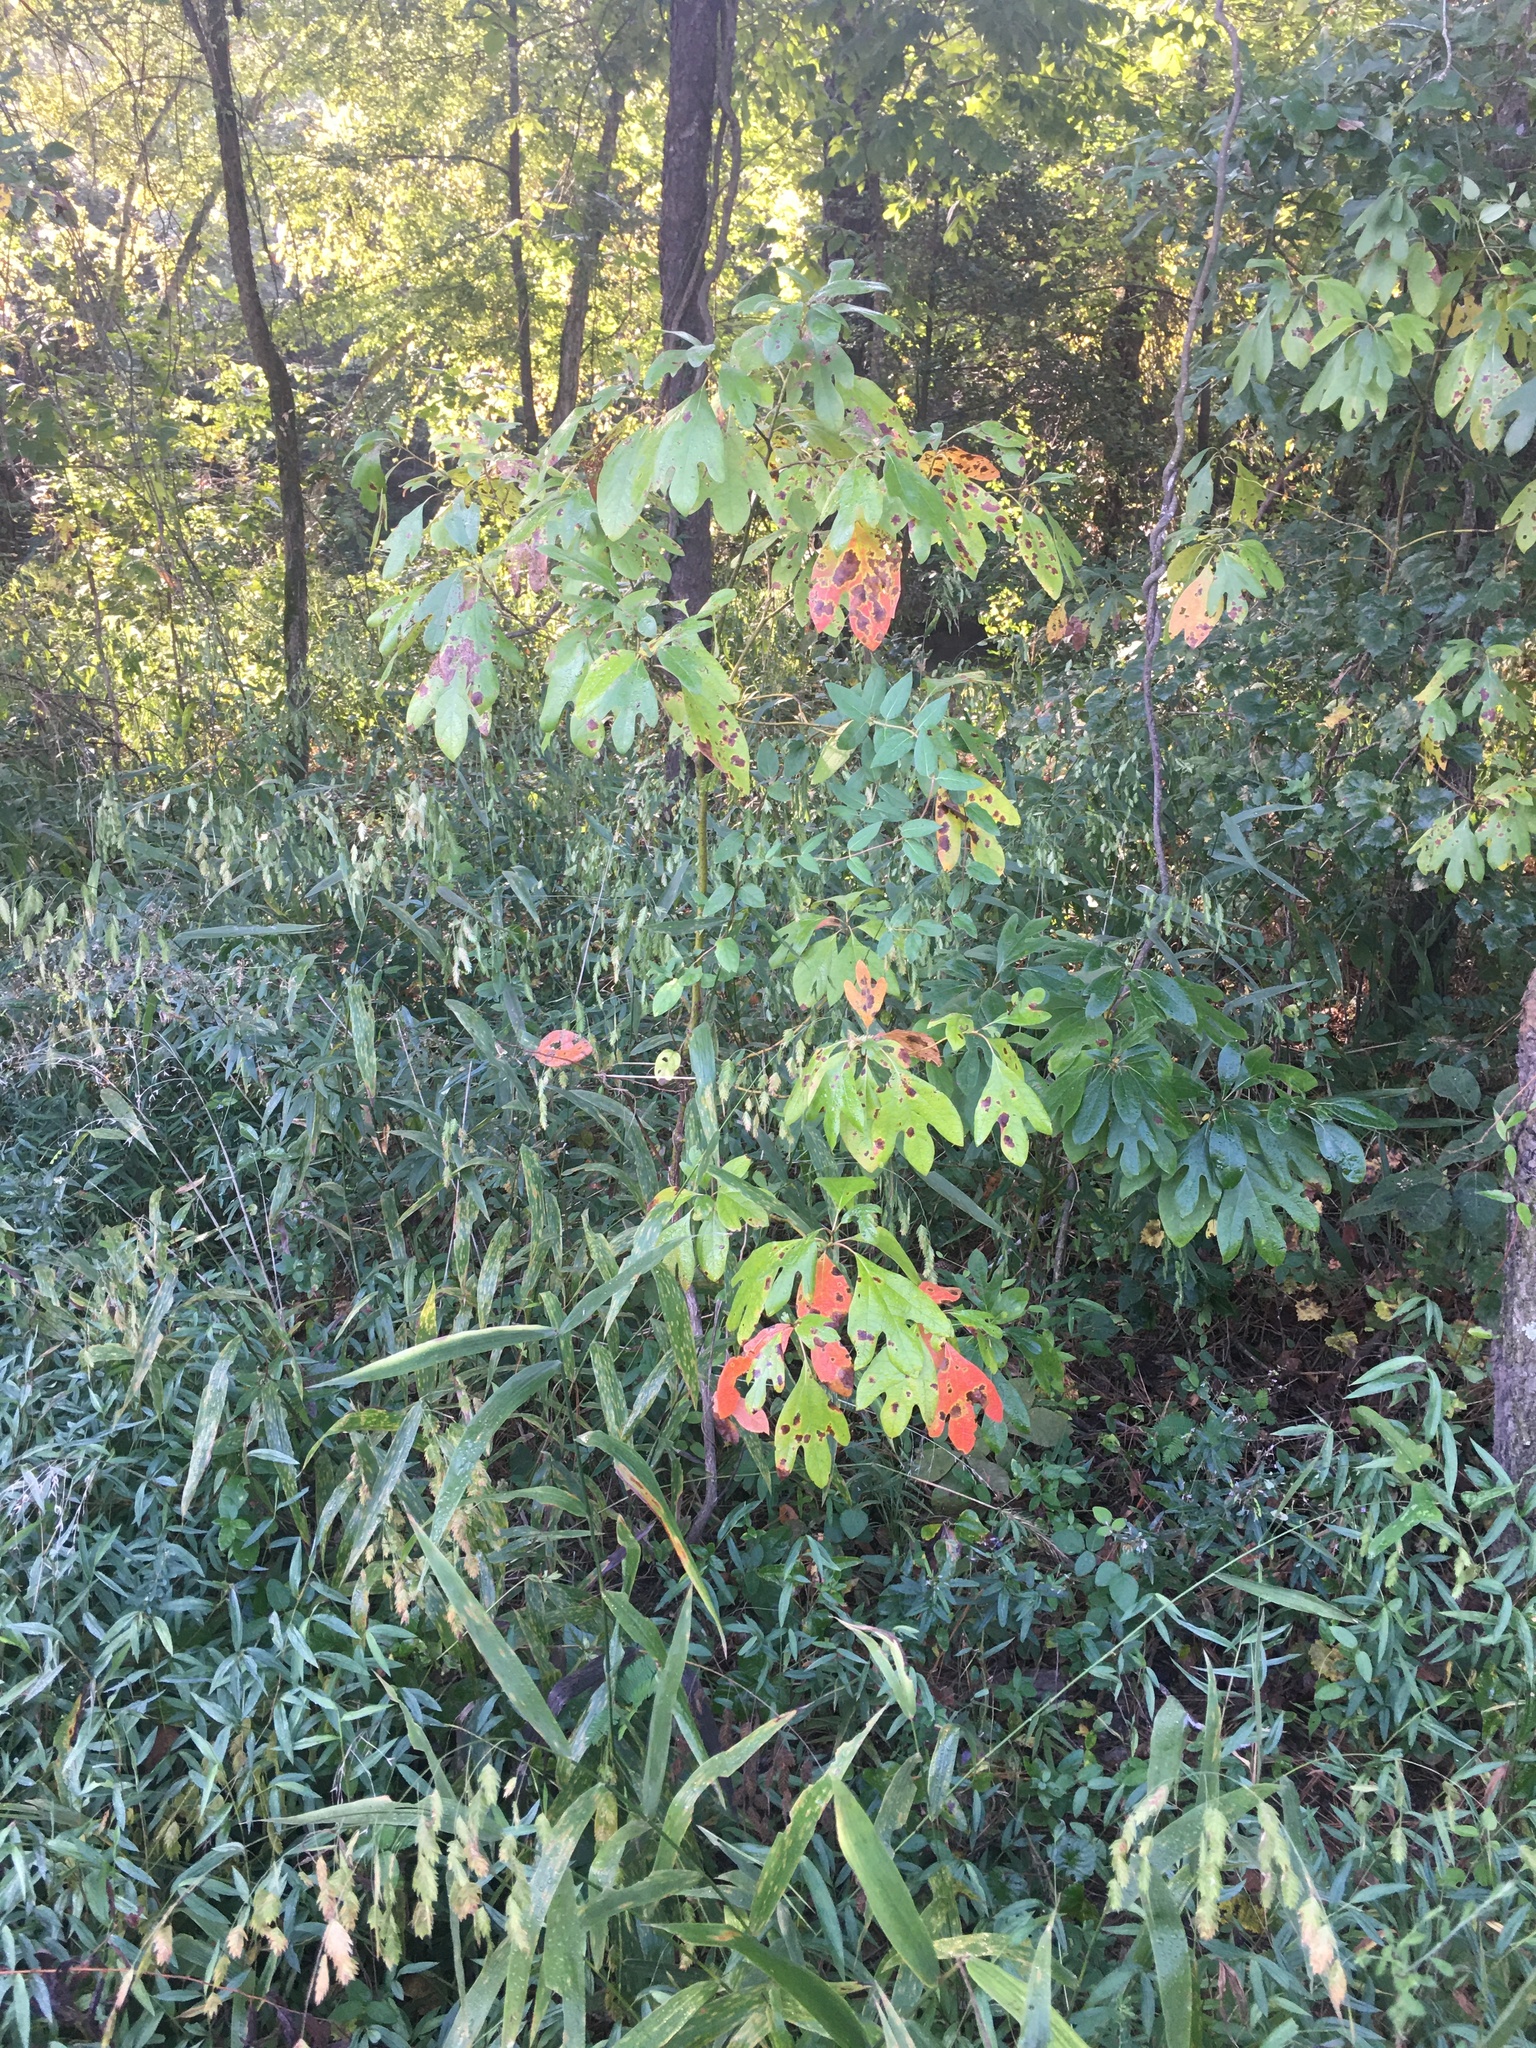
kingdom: Plantae
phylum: Tracheophyta
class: Magnoliopsida
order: Laurales
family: Lauraceae
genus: Sassafras
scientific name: Sassafras albidum
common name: Sassafras
